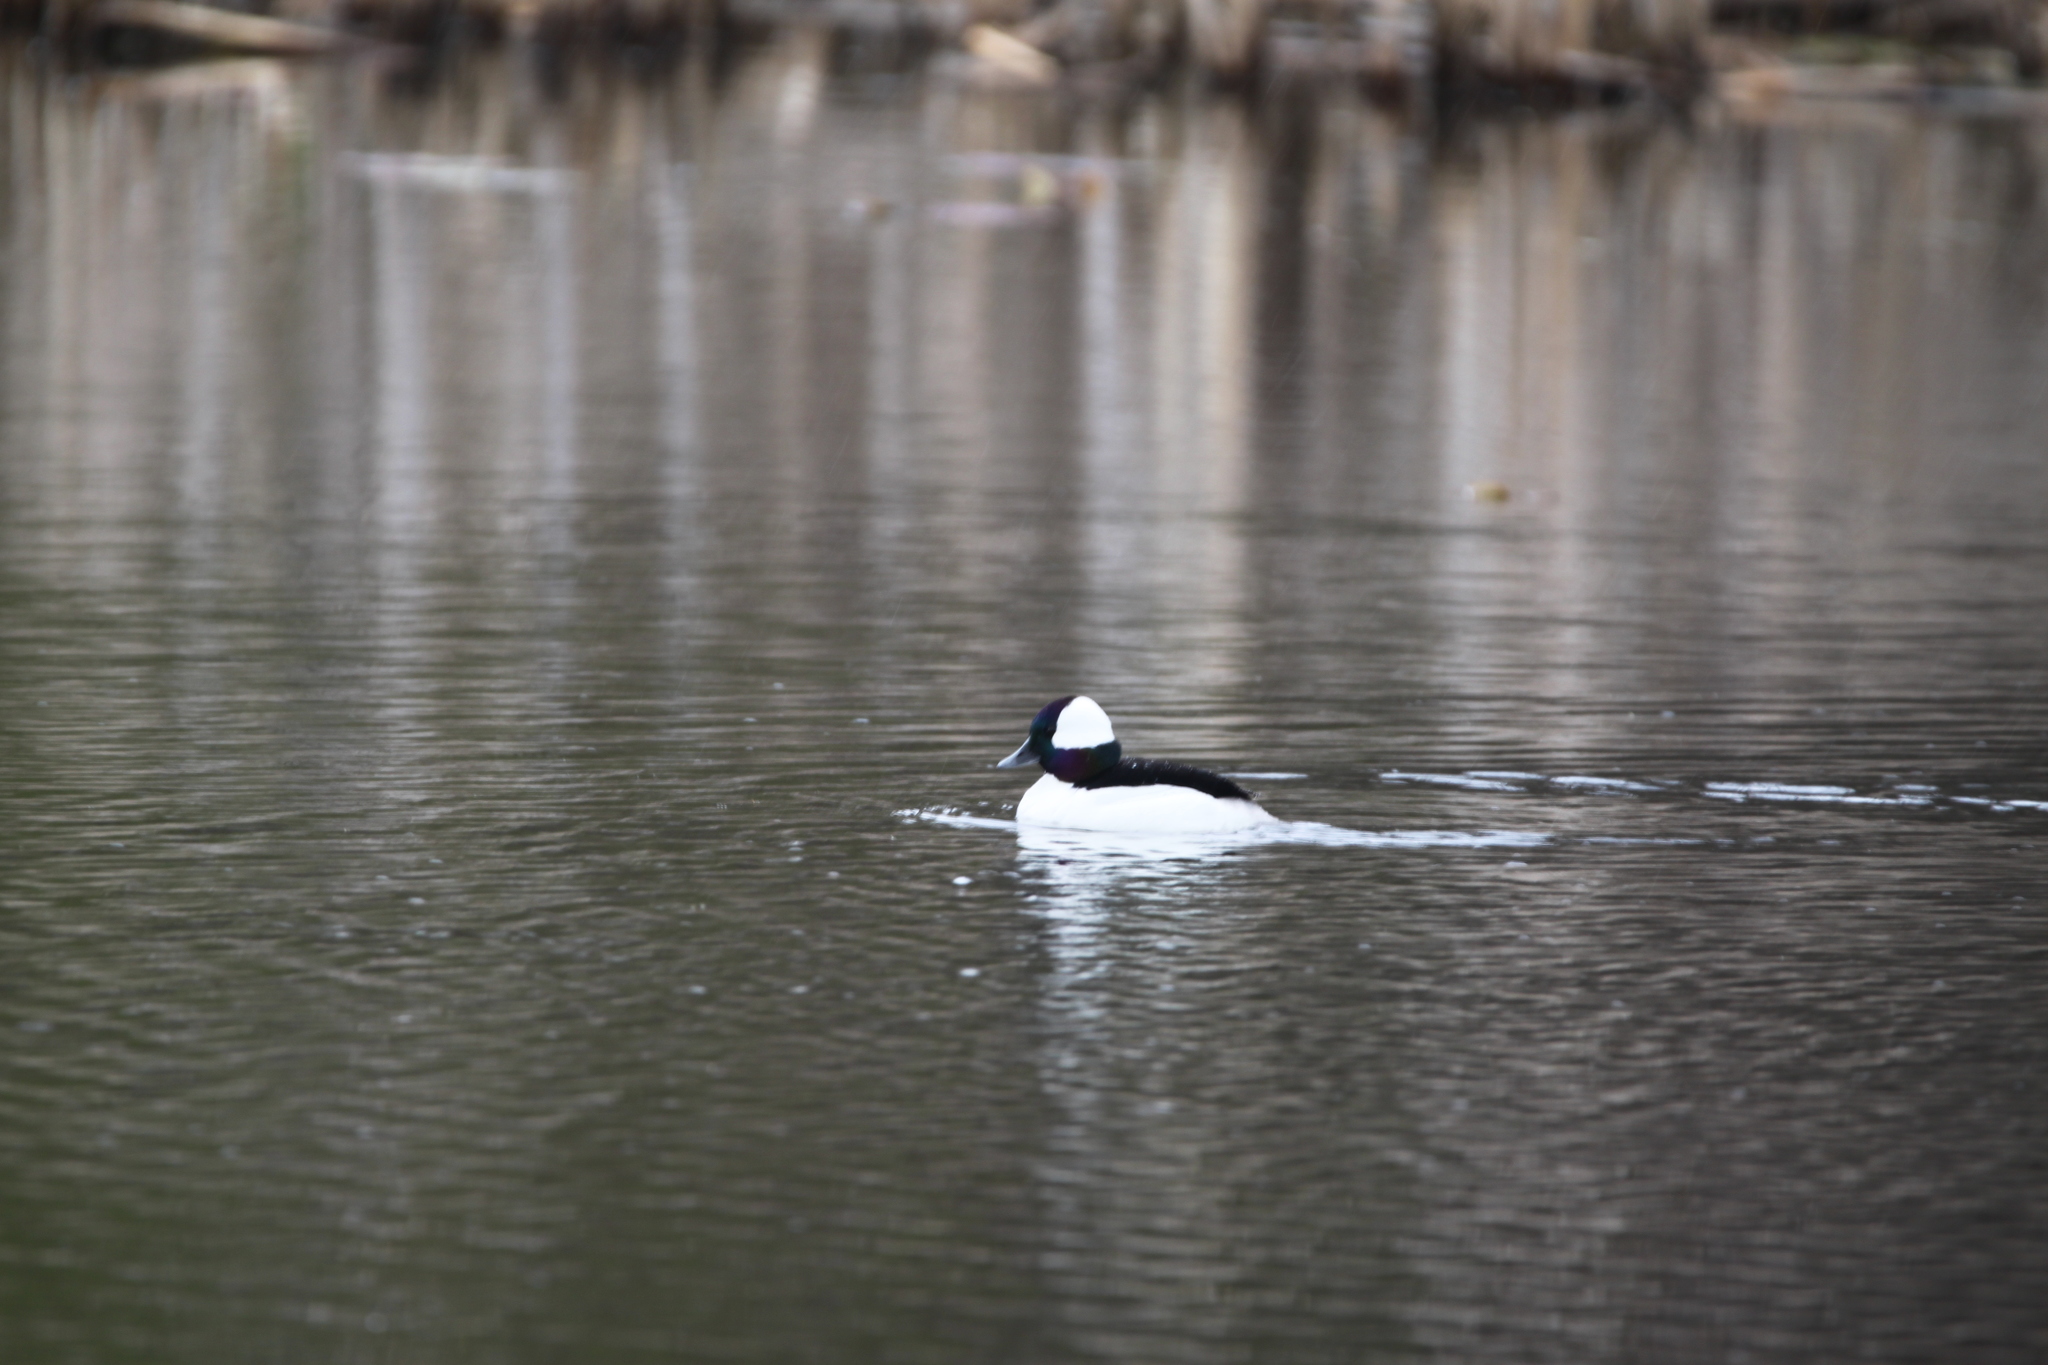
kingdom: Animalia
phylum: Chordata
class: Aves
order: Anseriformes
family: Anatidae
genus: Bucephala
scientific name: Bucephala albeola
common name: Bufflehead
